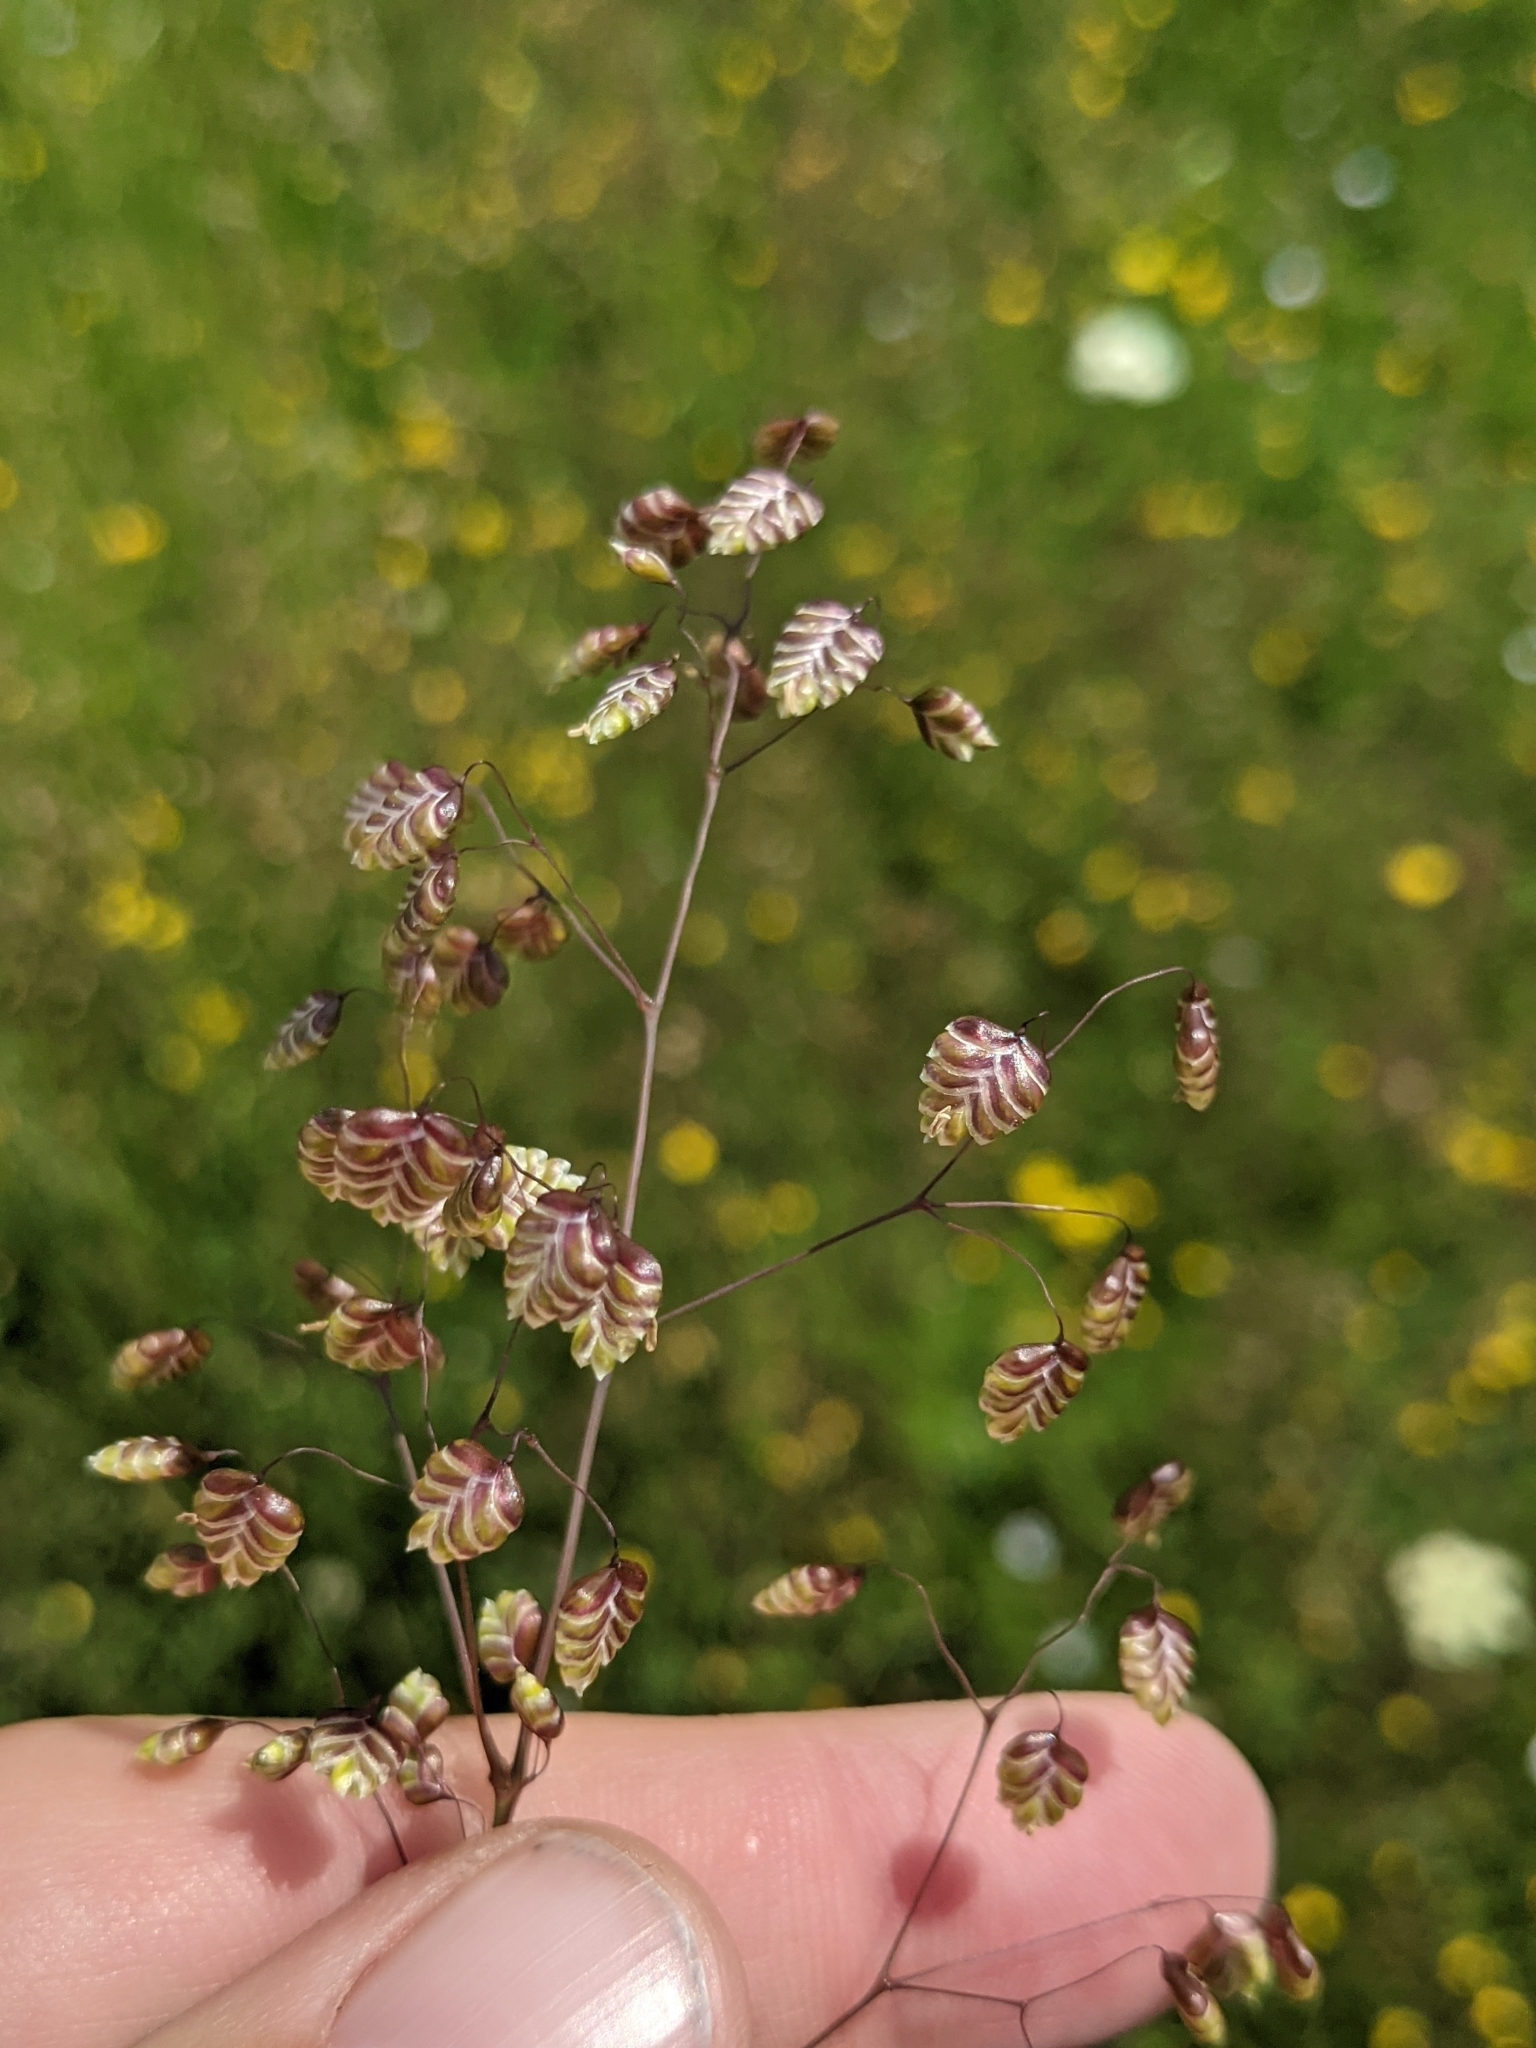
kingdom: Plantae
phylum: Tracheophyta
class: Liliopsida
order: Poales
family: Poaceae
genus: Briza
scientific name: Briza media
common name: Quaking grass
